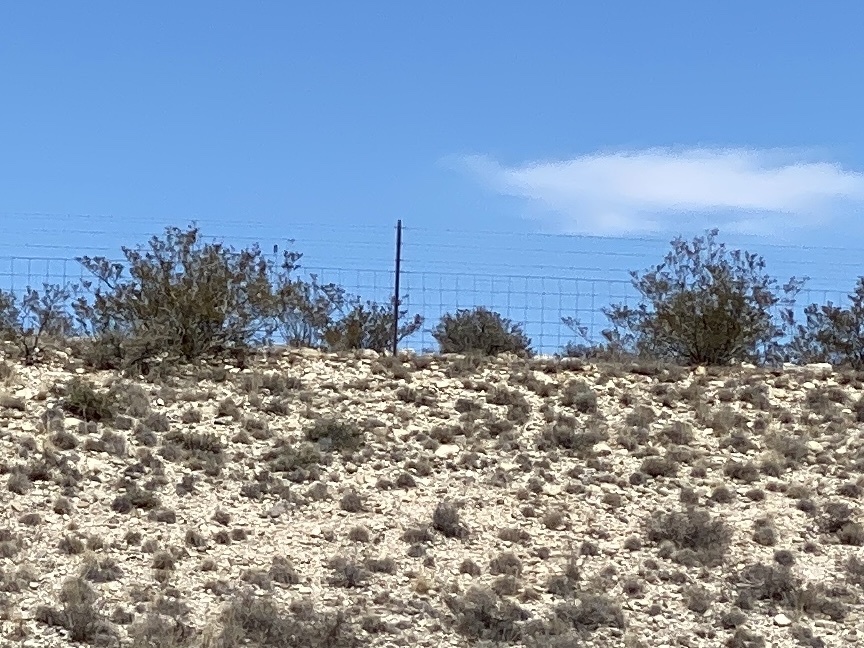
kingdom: Plantae
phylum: Tracheophyta
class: Magnoliopsida
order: Zygophyllales
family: Zygophyllaceae
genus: Larrea
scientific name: Larrea tridentata
